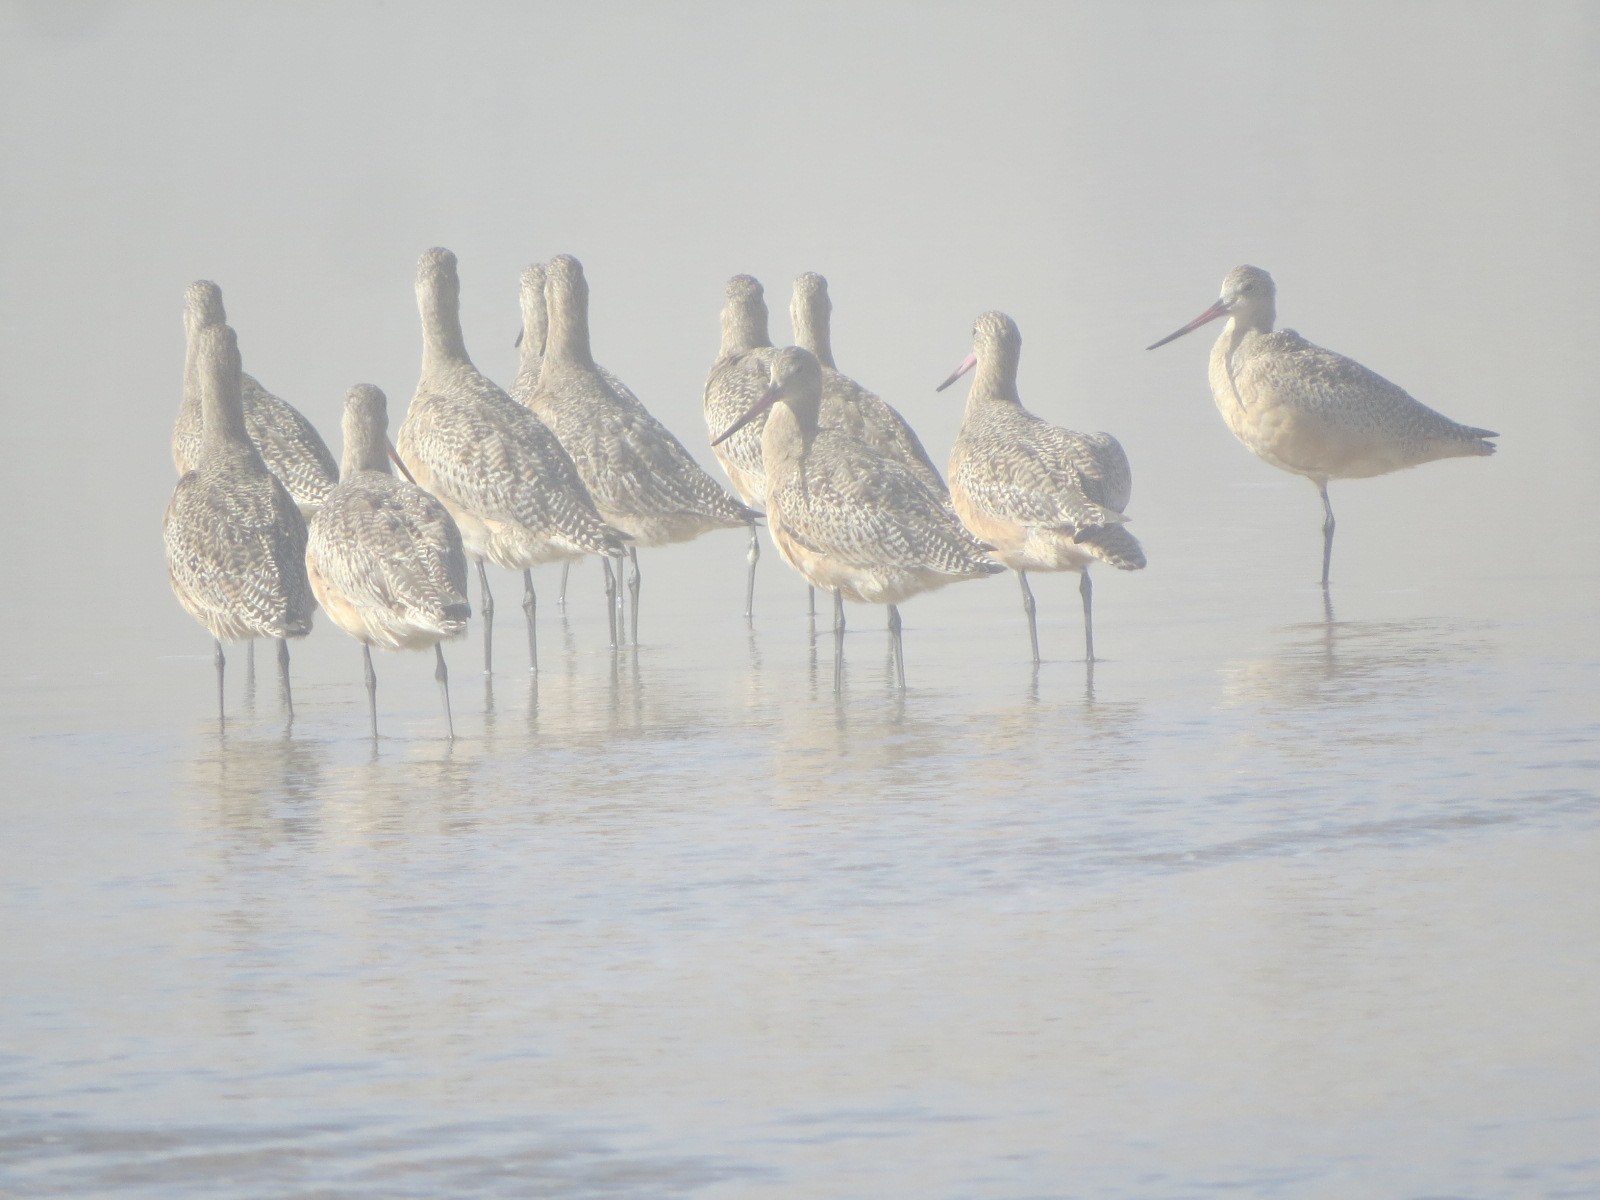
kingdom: Animalia
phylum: Chordata
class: Aves
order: Charadriiformes
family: Scolopacidae
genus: Limosa
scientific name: Limosa fedoa
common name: Marbled godwit
